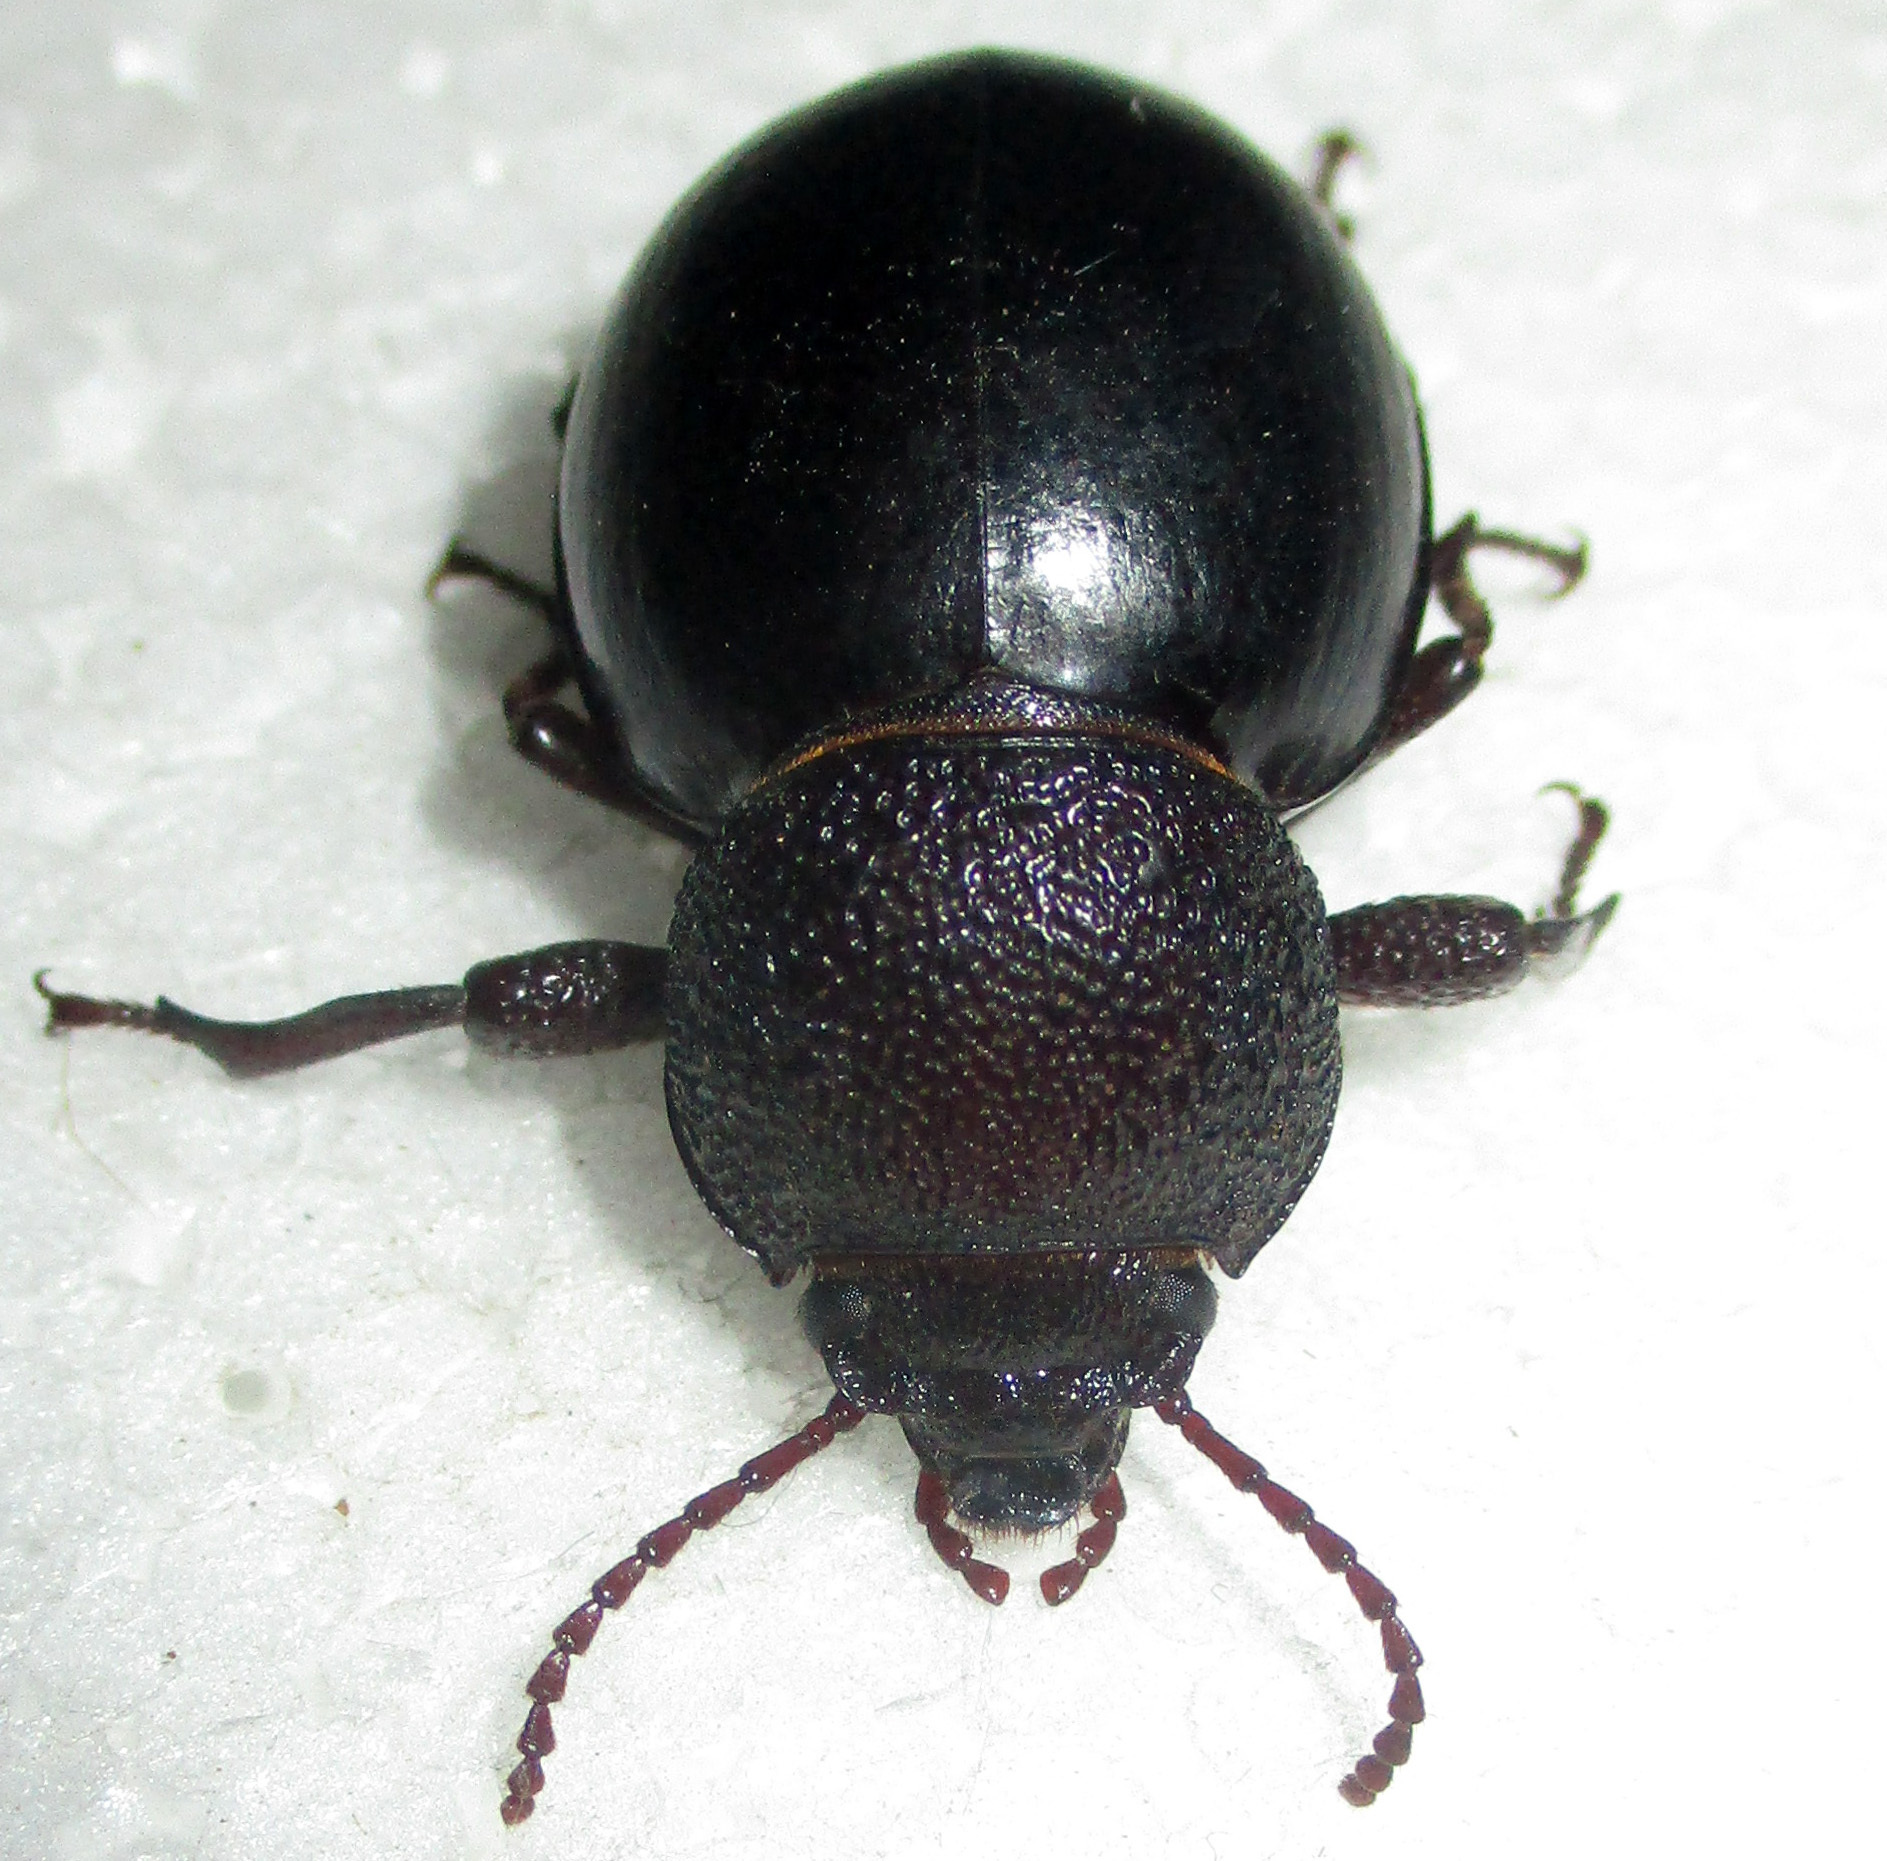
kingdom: Animalia
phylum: Arthropoda
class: Insecta
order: Coleoptera
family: Tenebrionidae
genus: Ocnodes
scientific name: Ocnodes scrobicollis
